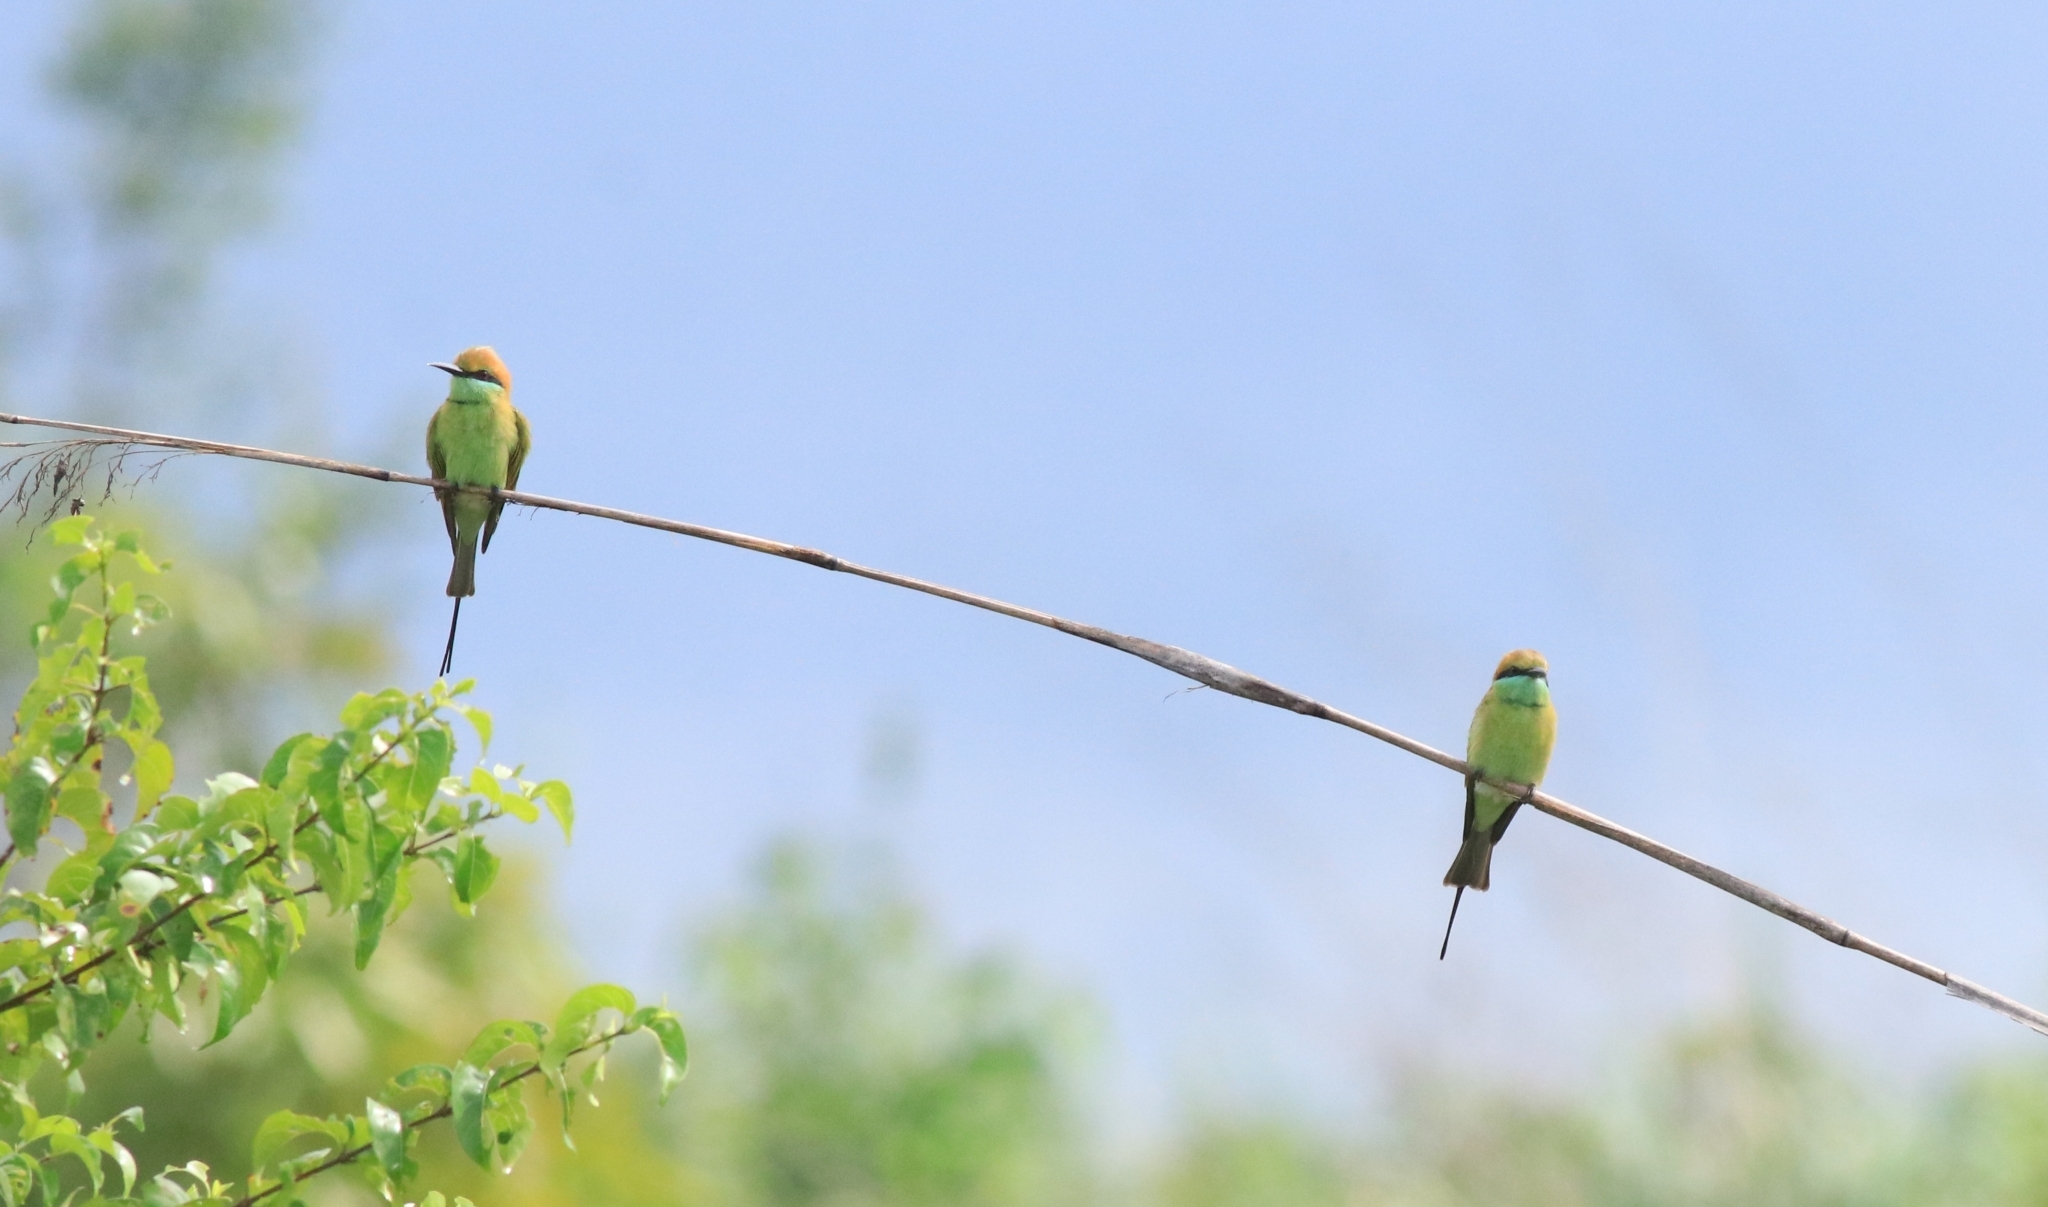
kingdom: Animalia
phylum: Chordata
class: Aves
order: Coraciiformes
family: Meropidae
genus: Merops
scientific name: Merops orientalis
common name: Green bee-eater
